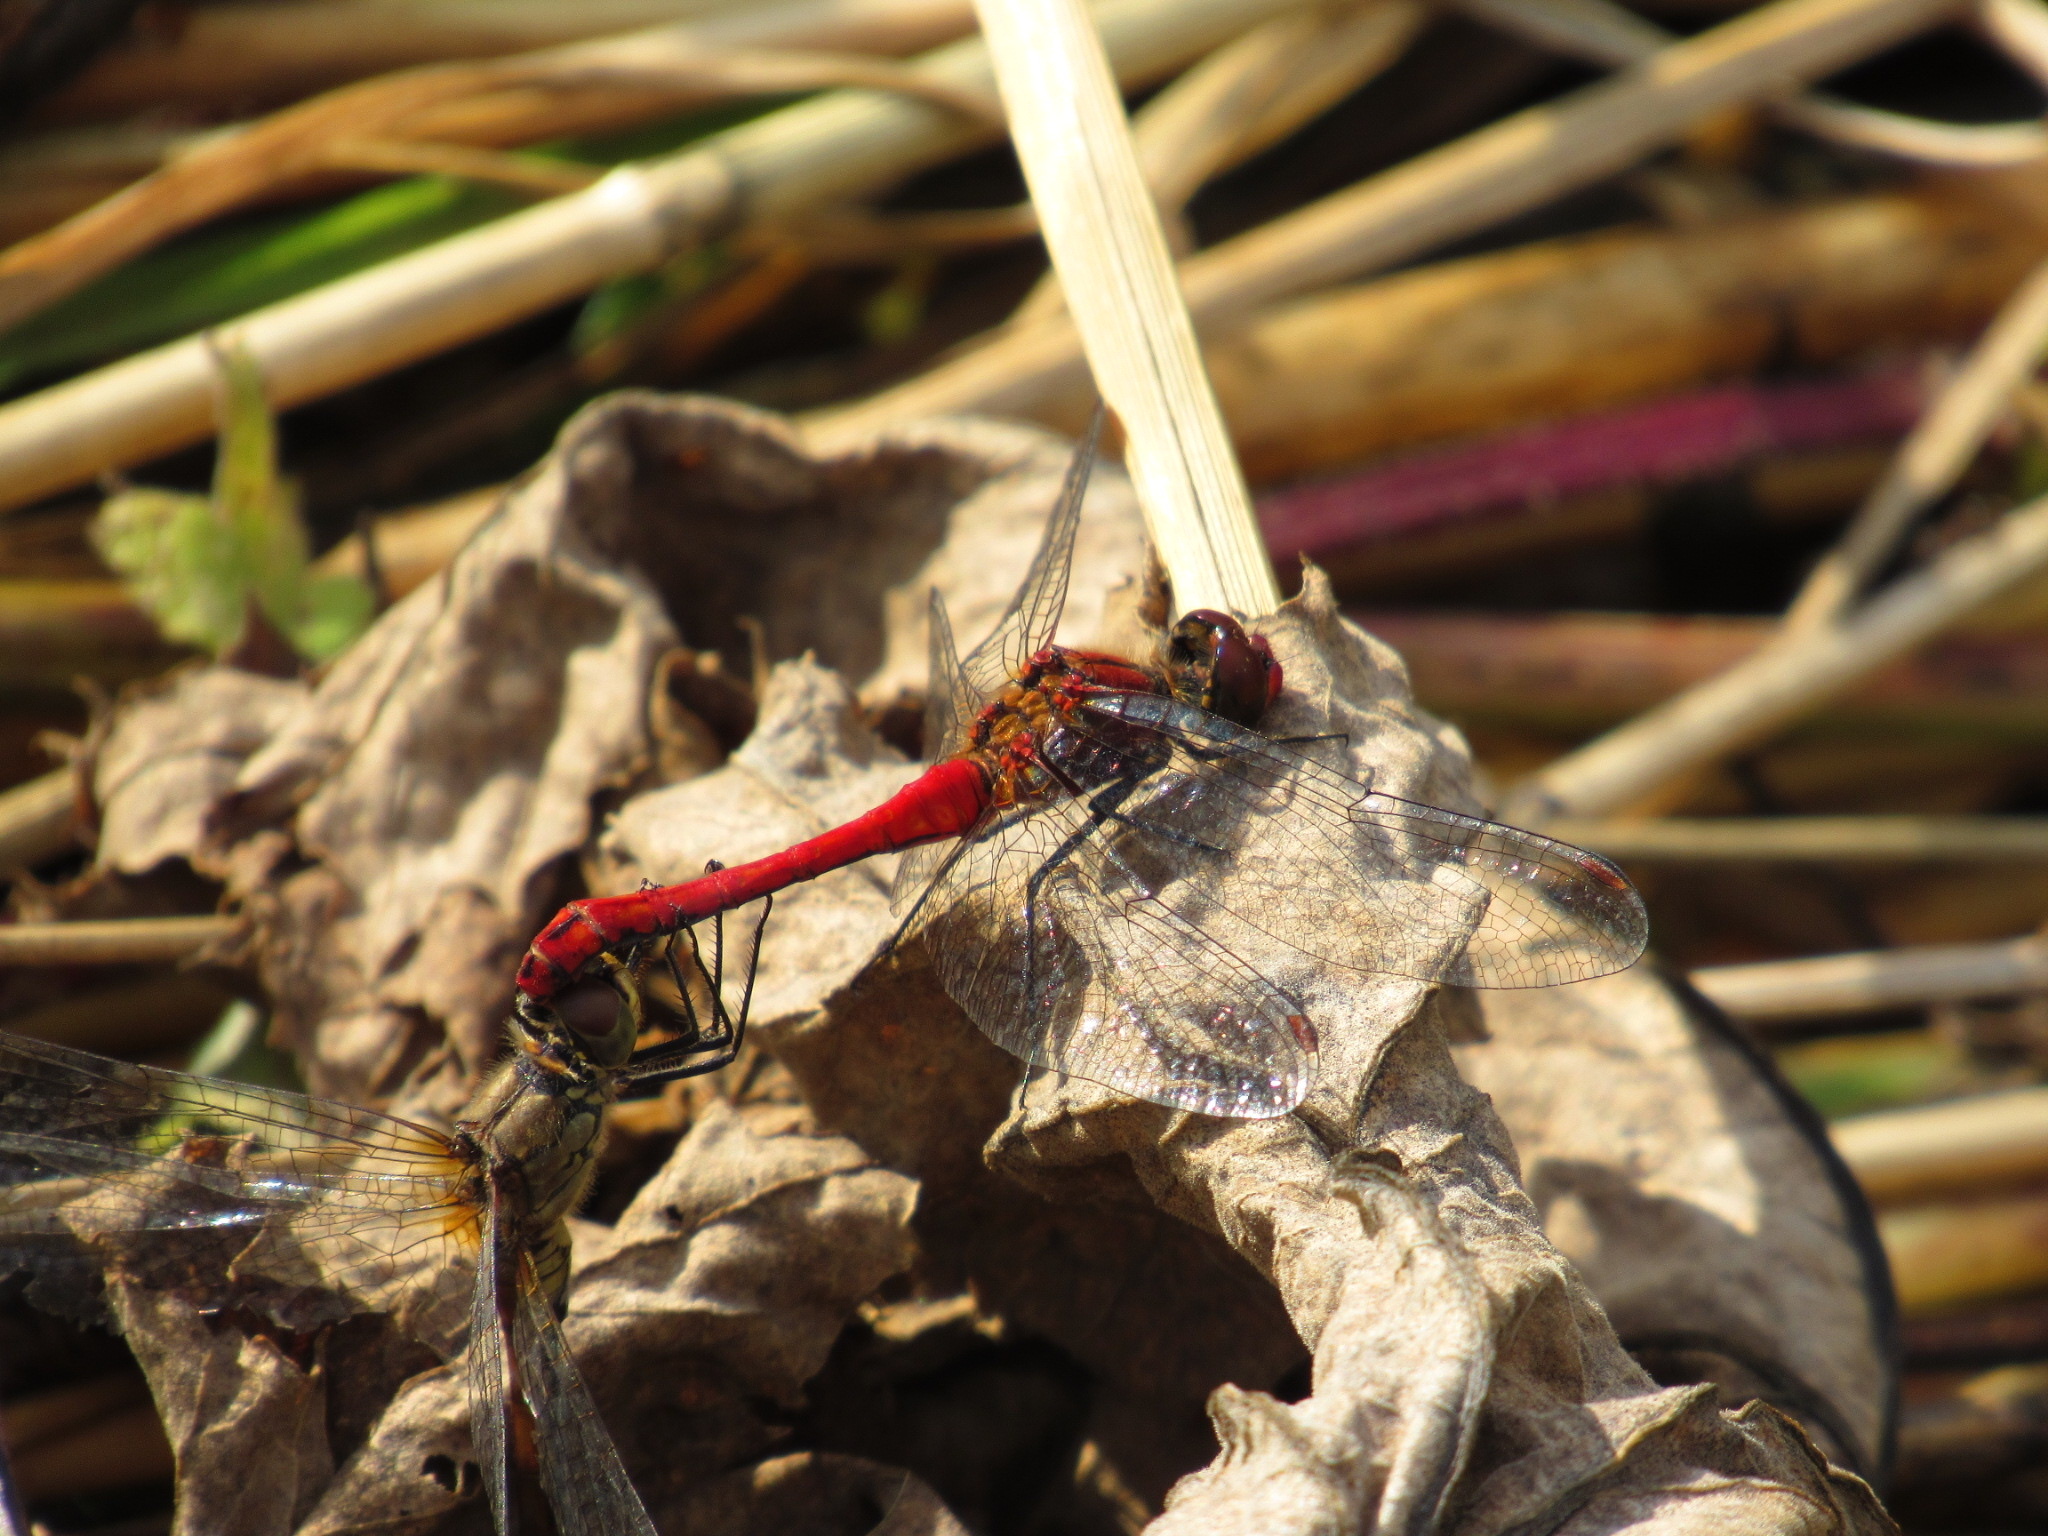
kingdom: Animalia
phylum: Arthropoda
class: Insecta
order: Odonata
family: Libellulidae
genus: Sympetrum
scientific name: Sympetrum sanguineum
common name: Ruddy darter
